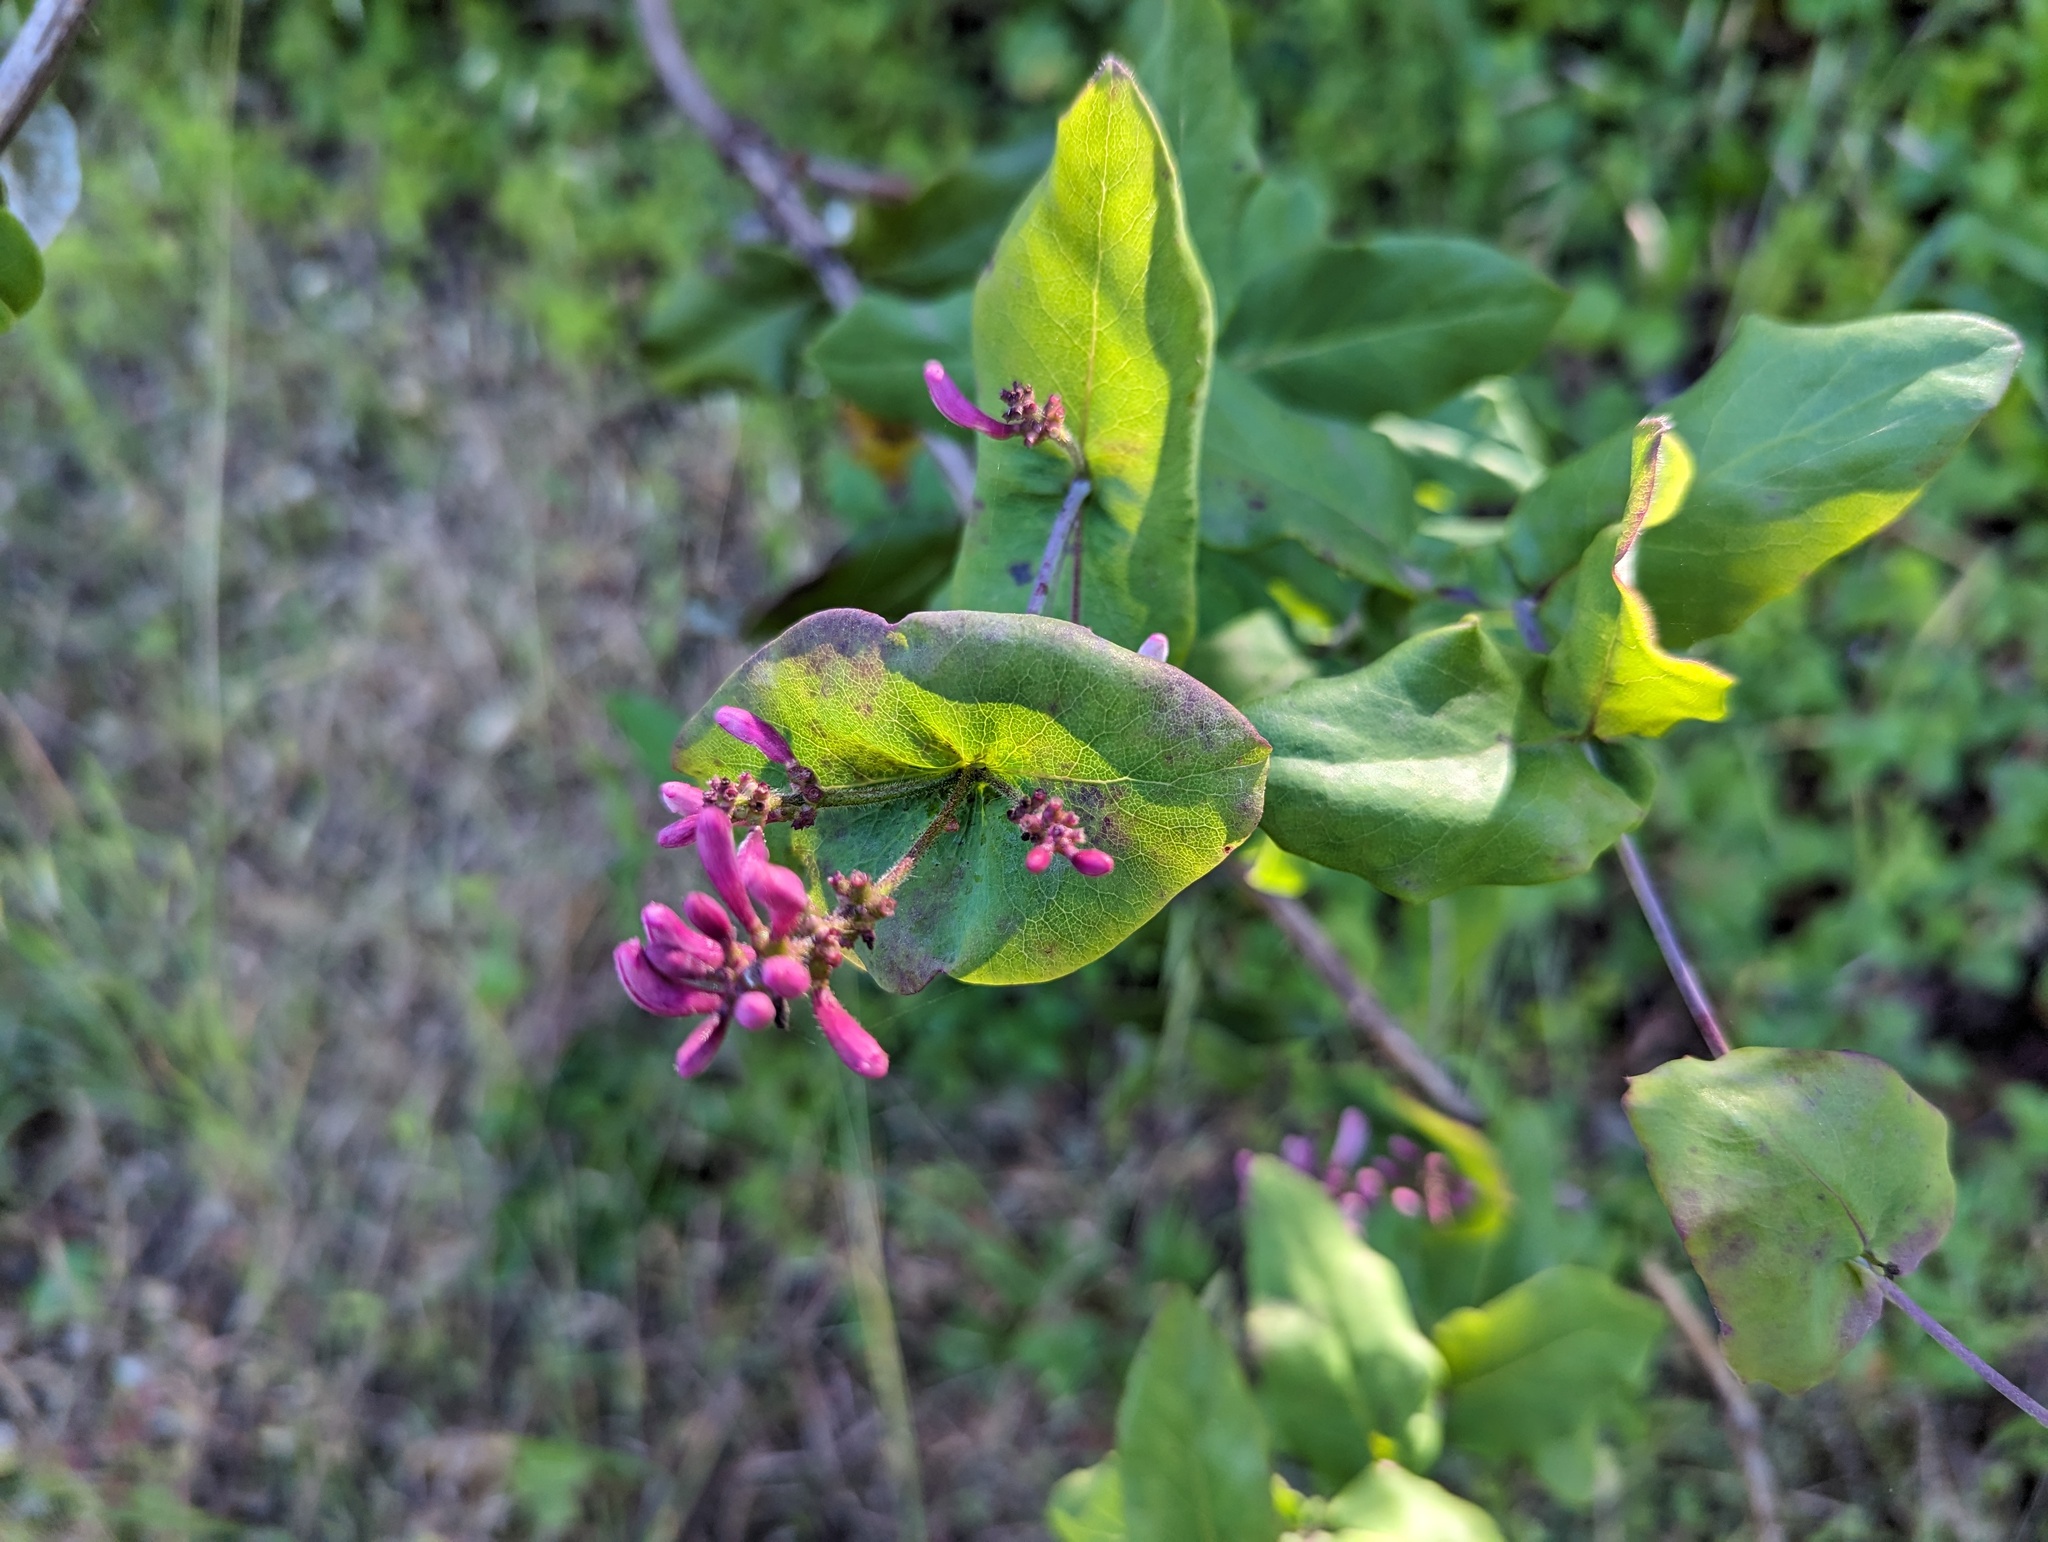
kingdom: Plantae
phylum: Tracheophyta
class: Magnoliopsida
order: Dipsacales
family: Caprifoliaceae
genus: Lonicera
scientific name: Lonicera hispidula
